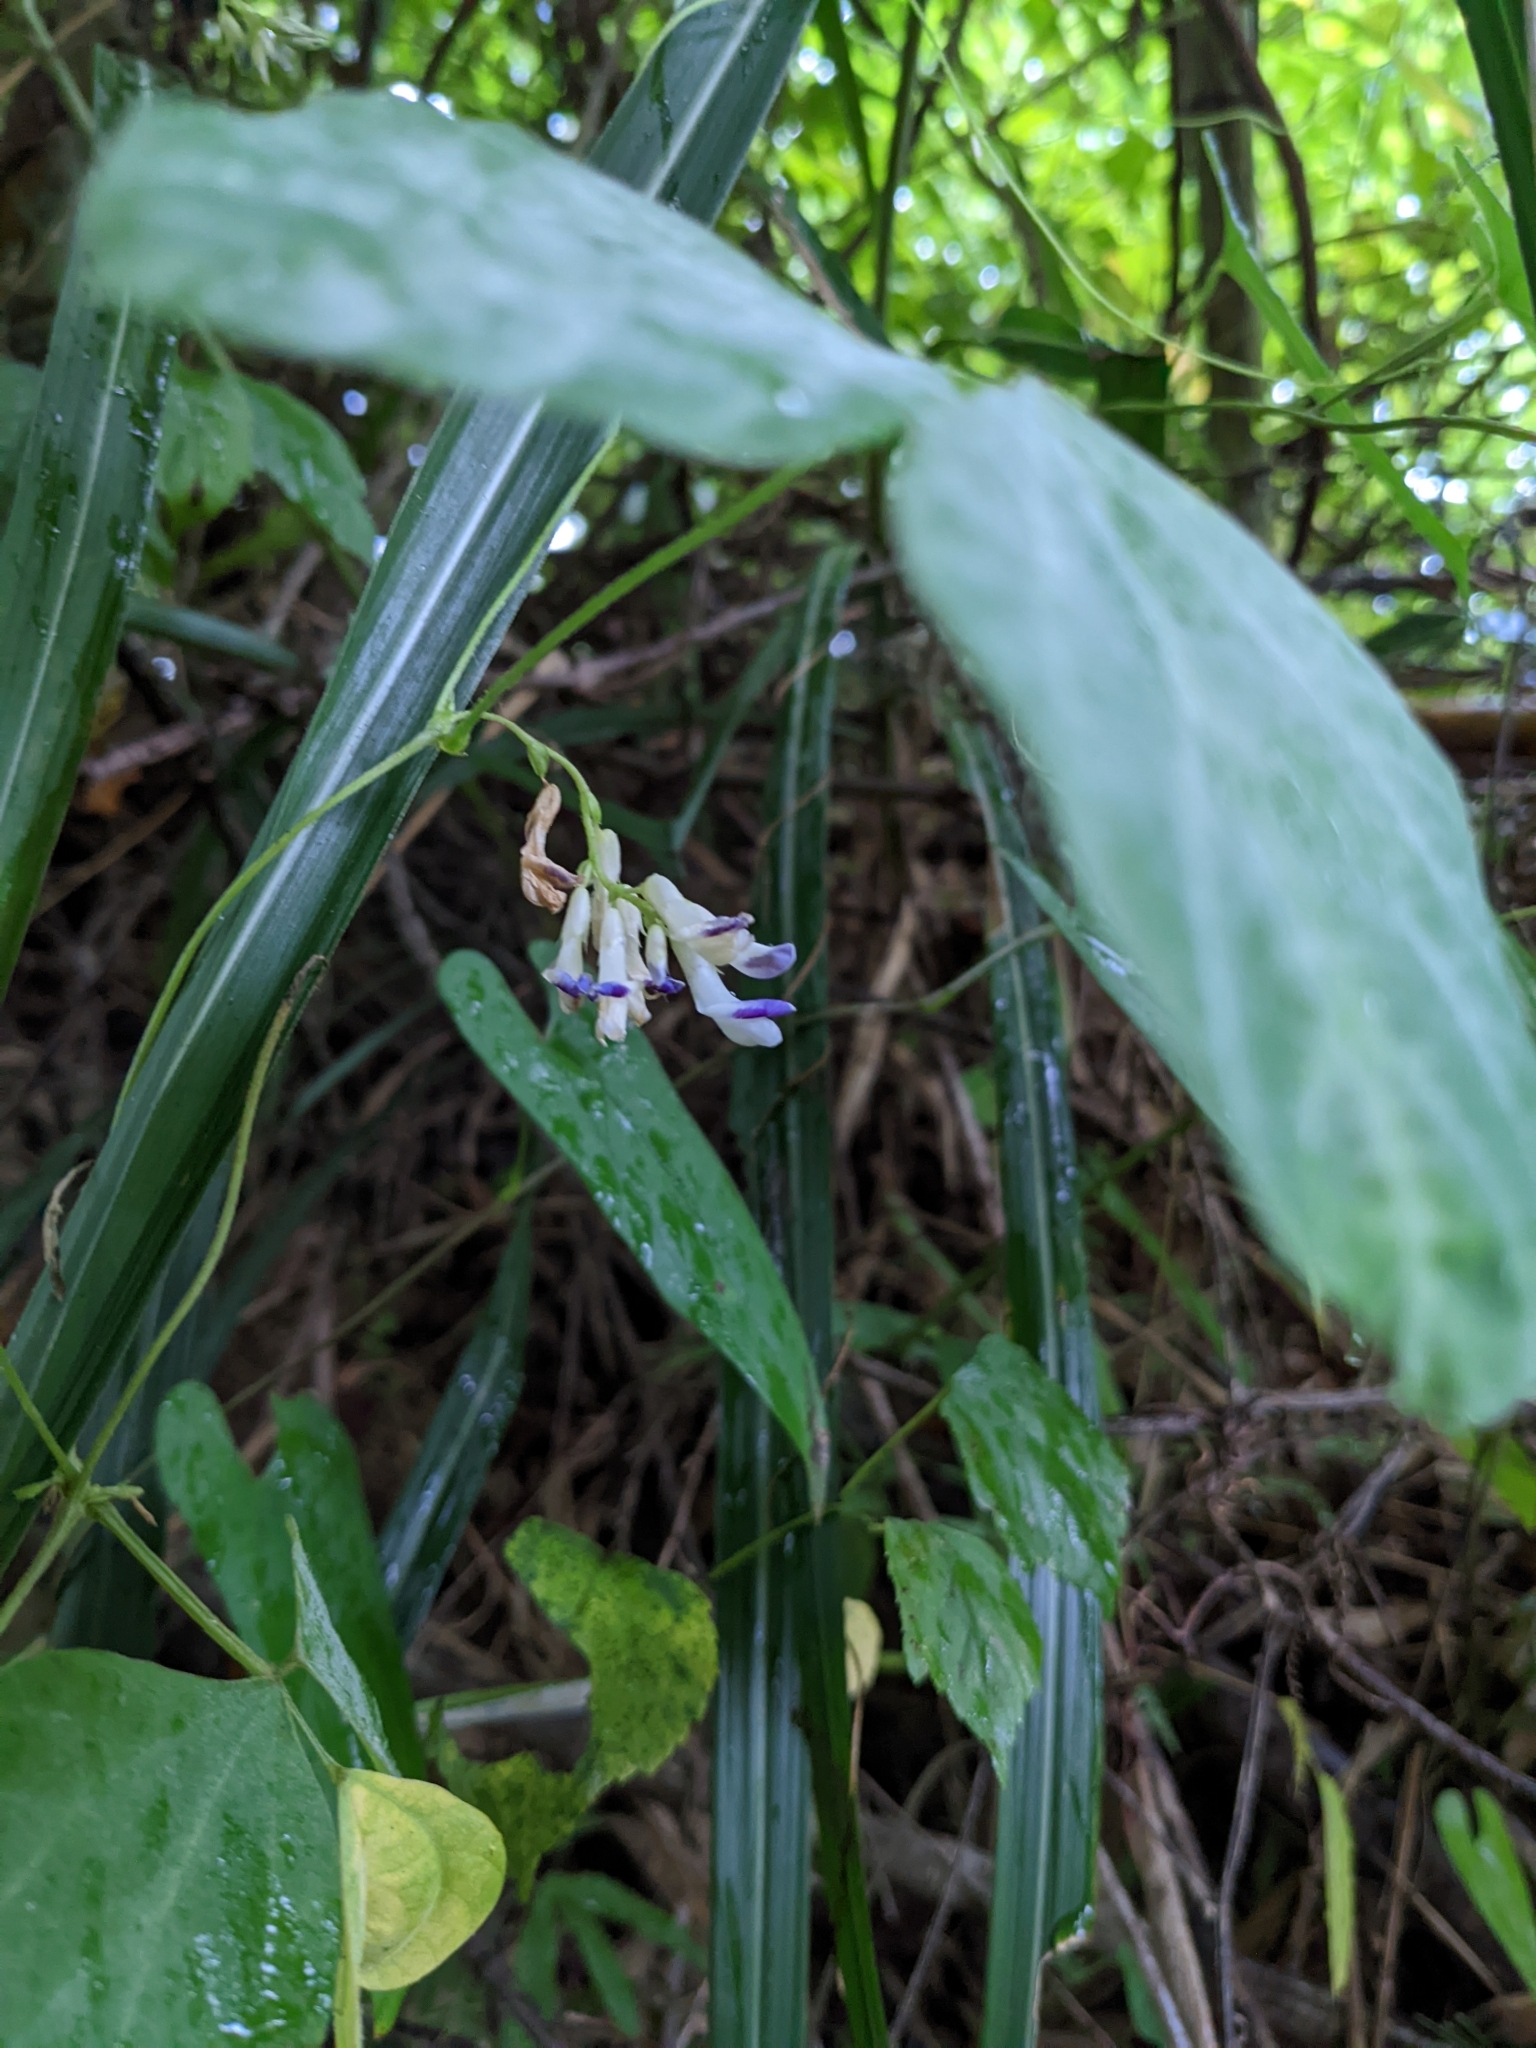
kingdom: Plantae
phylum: Tracheophyta
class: Magnoliopsida
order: Fabales
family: Fabaceae
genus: Amphicarpaea
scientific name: Amphicarpaea edgeworthii
